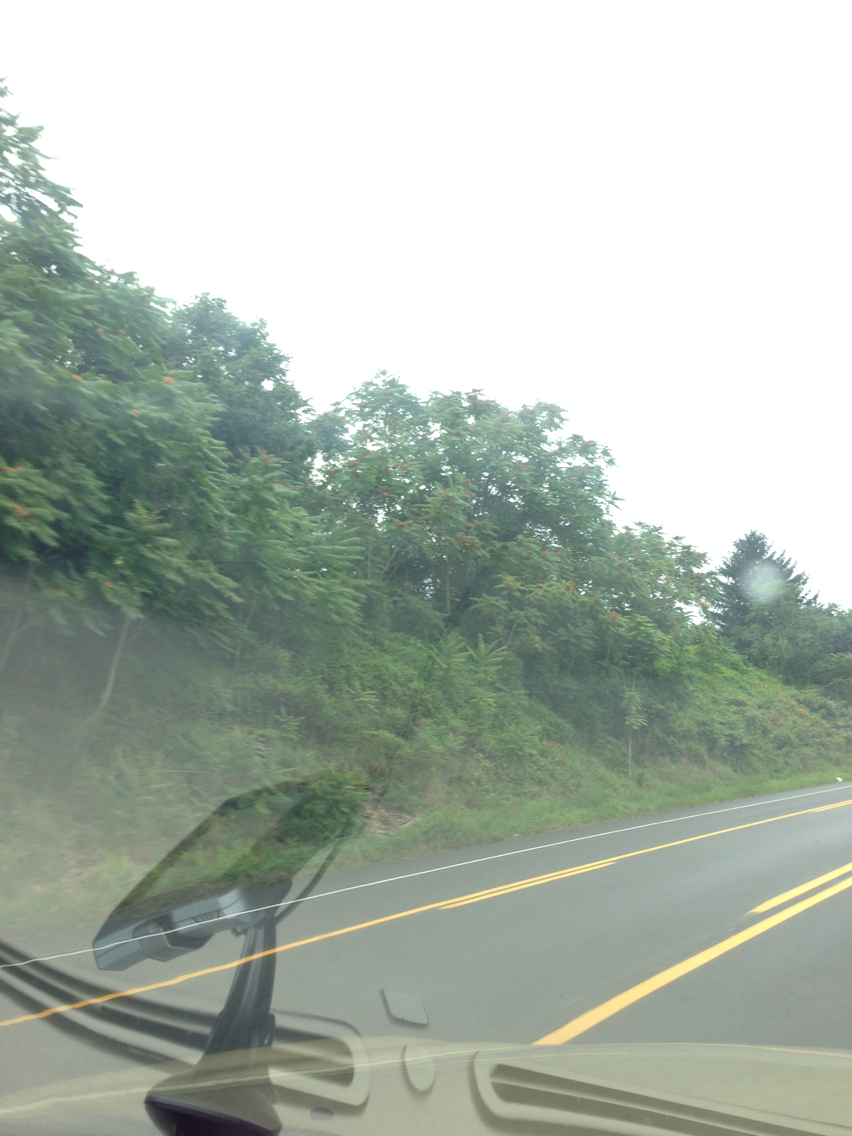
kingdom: Plantae
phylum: Tracheophyta
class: Magnoliopsida
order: Sapindales
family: Simaroubaceae
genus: Ailanthus
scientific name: Ailanthus altissima
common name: Tree-of-heaven
